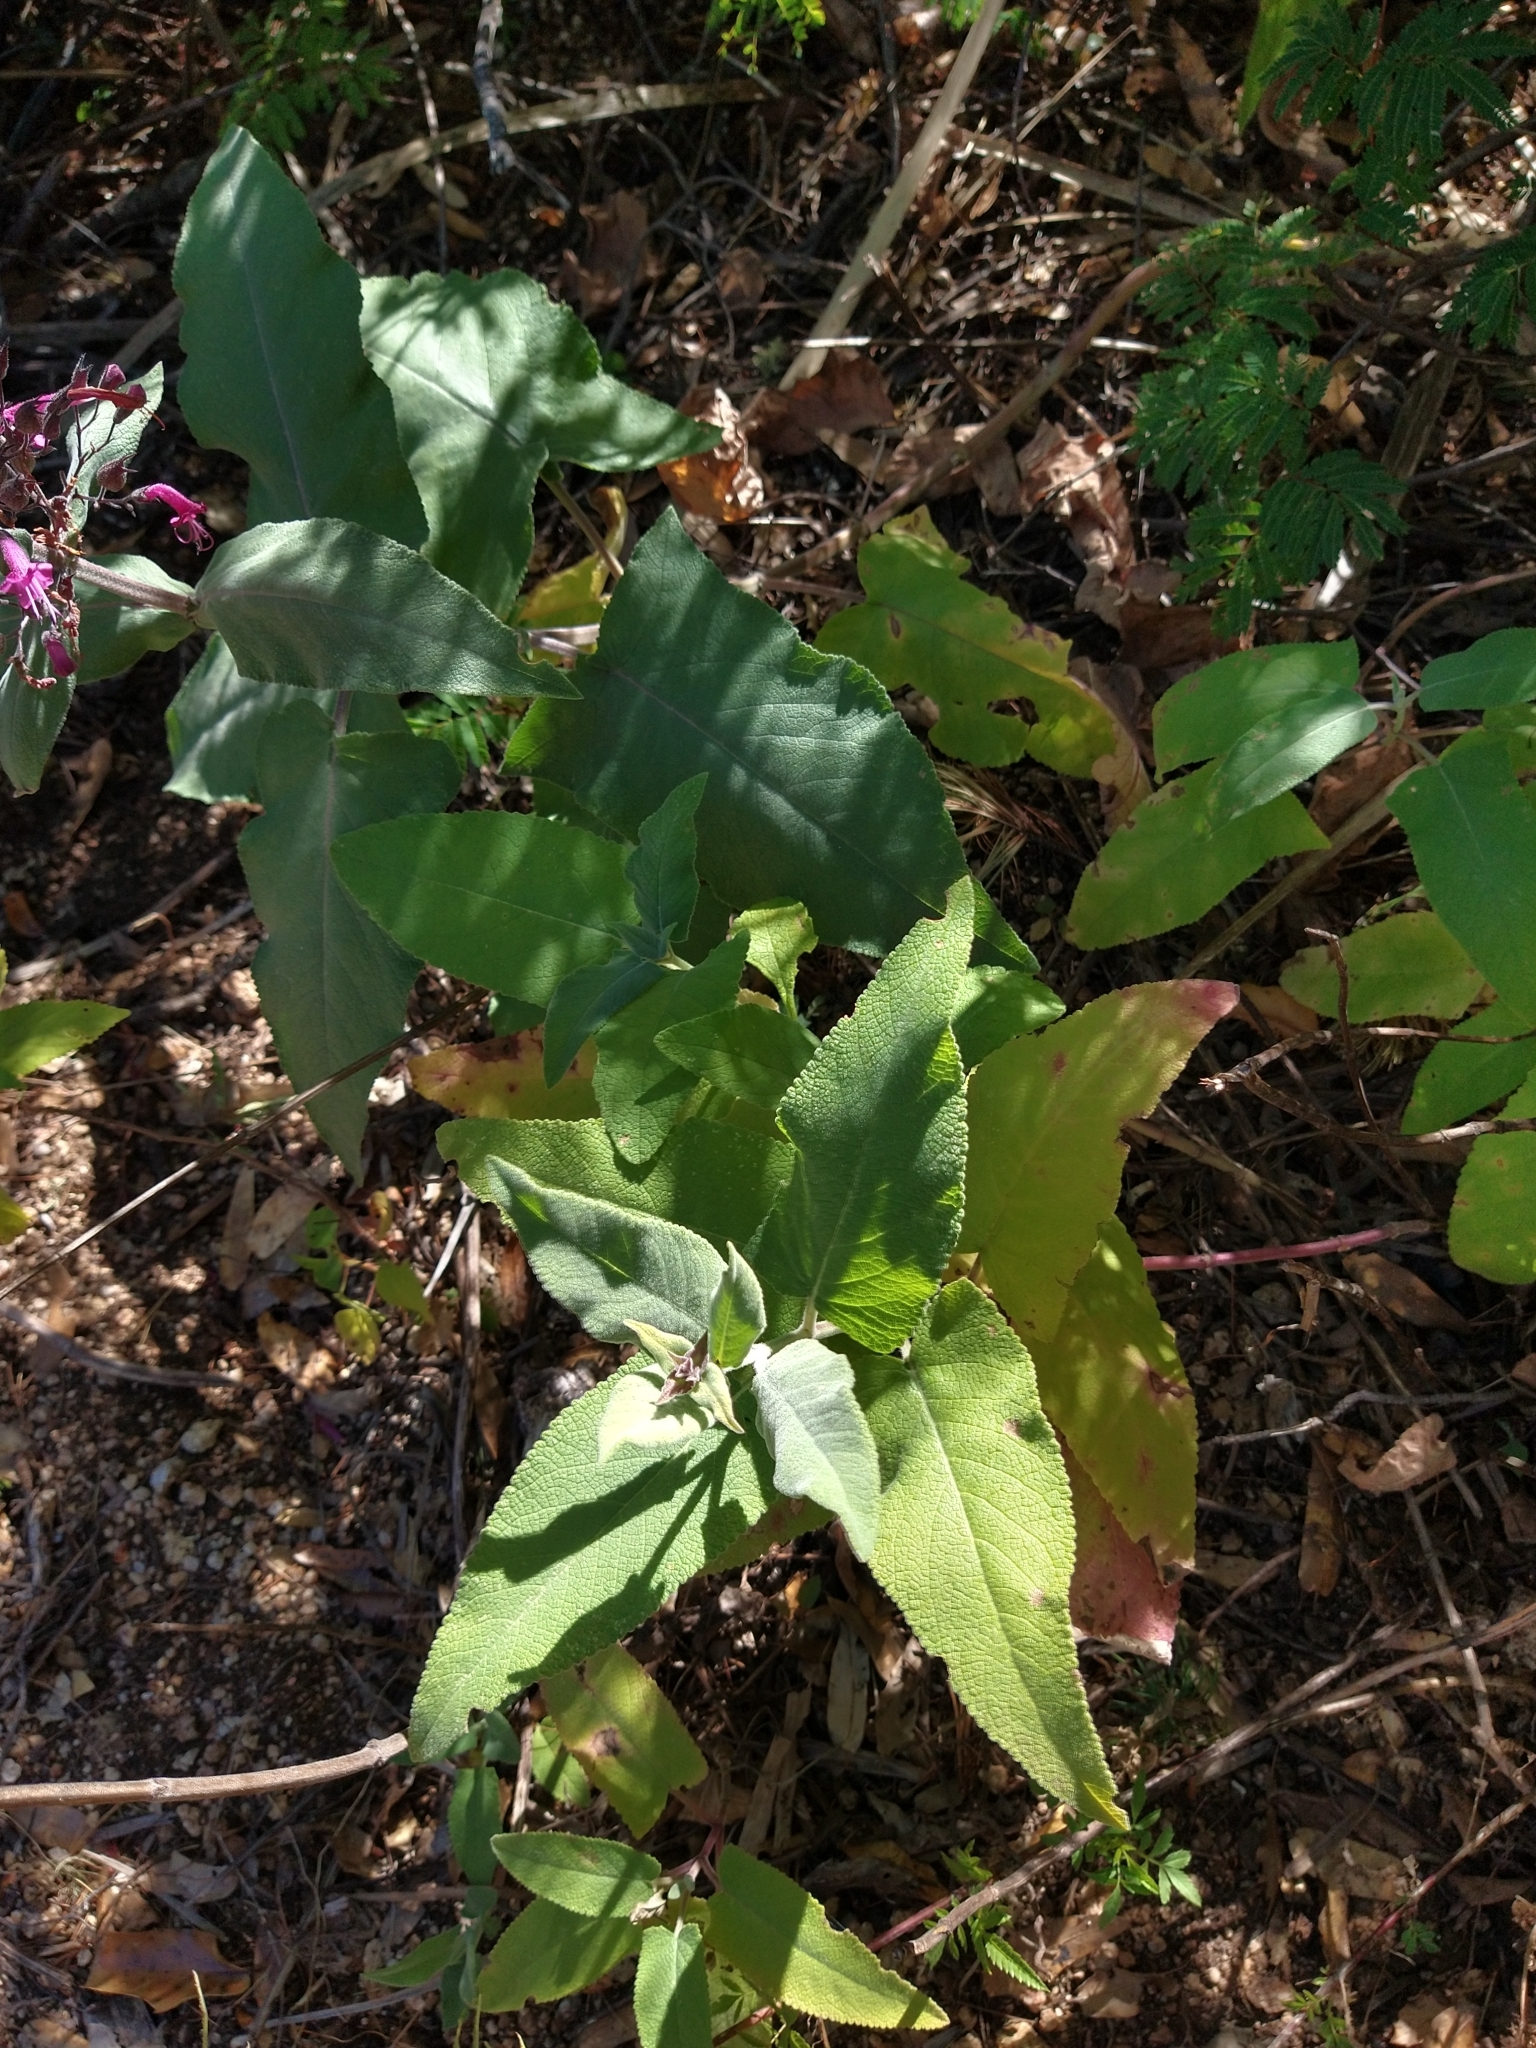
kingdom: Plantae
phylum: Tracheophyta
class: Magnoliopsida
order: Lamiales
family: Lamiaceae
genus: Lepechinia
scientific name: Lepechinia hastata
